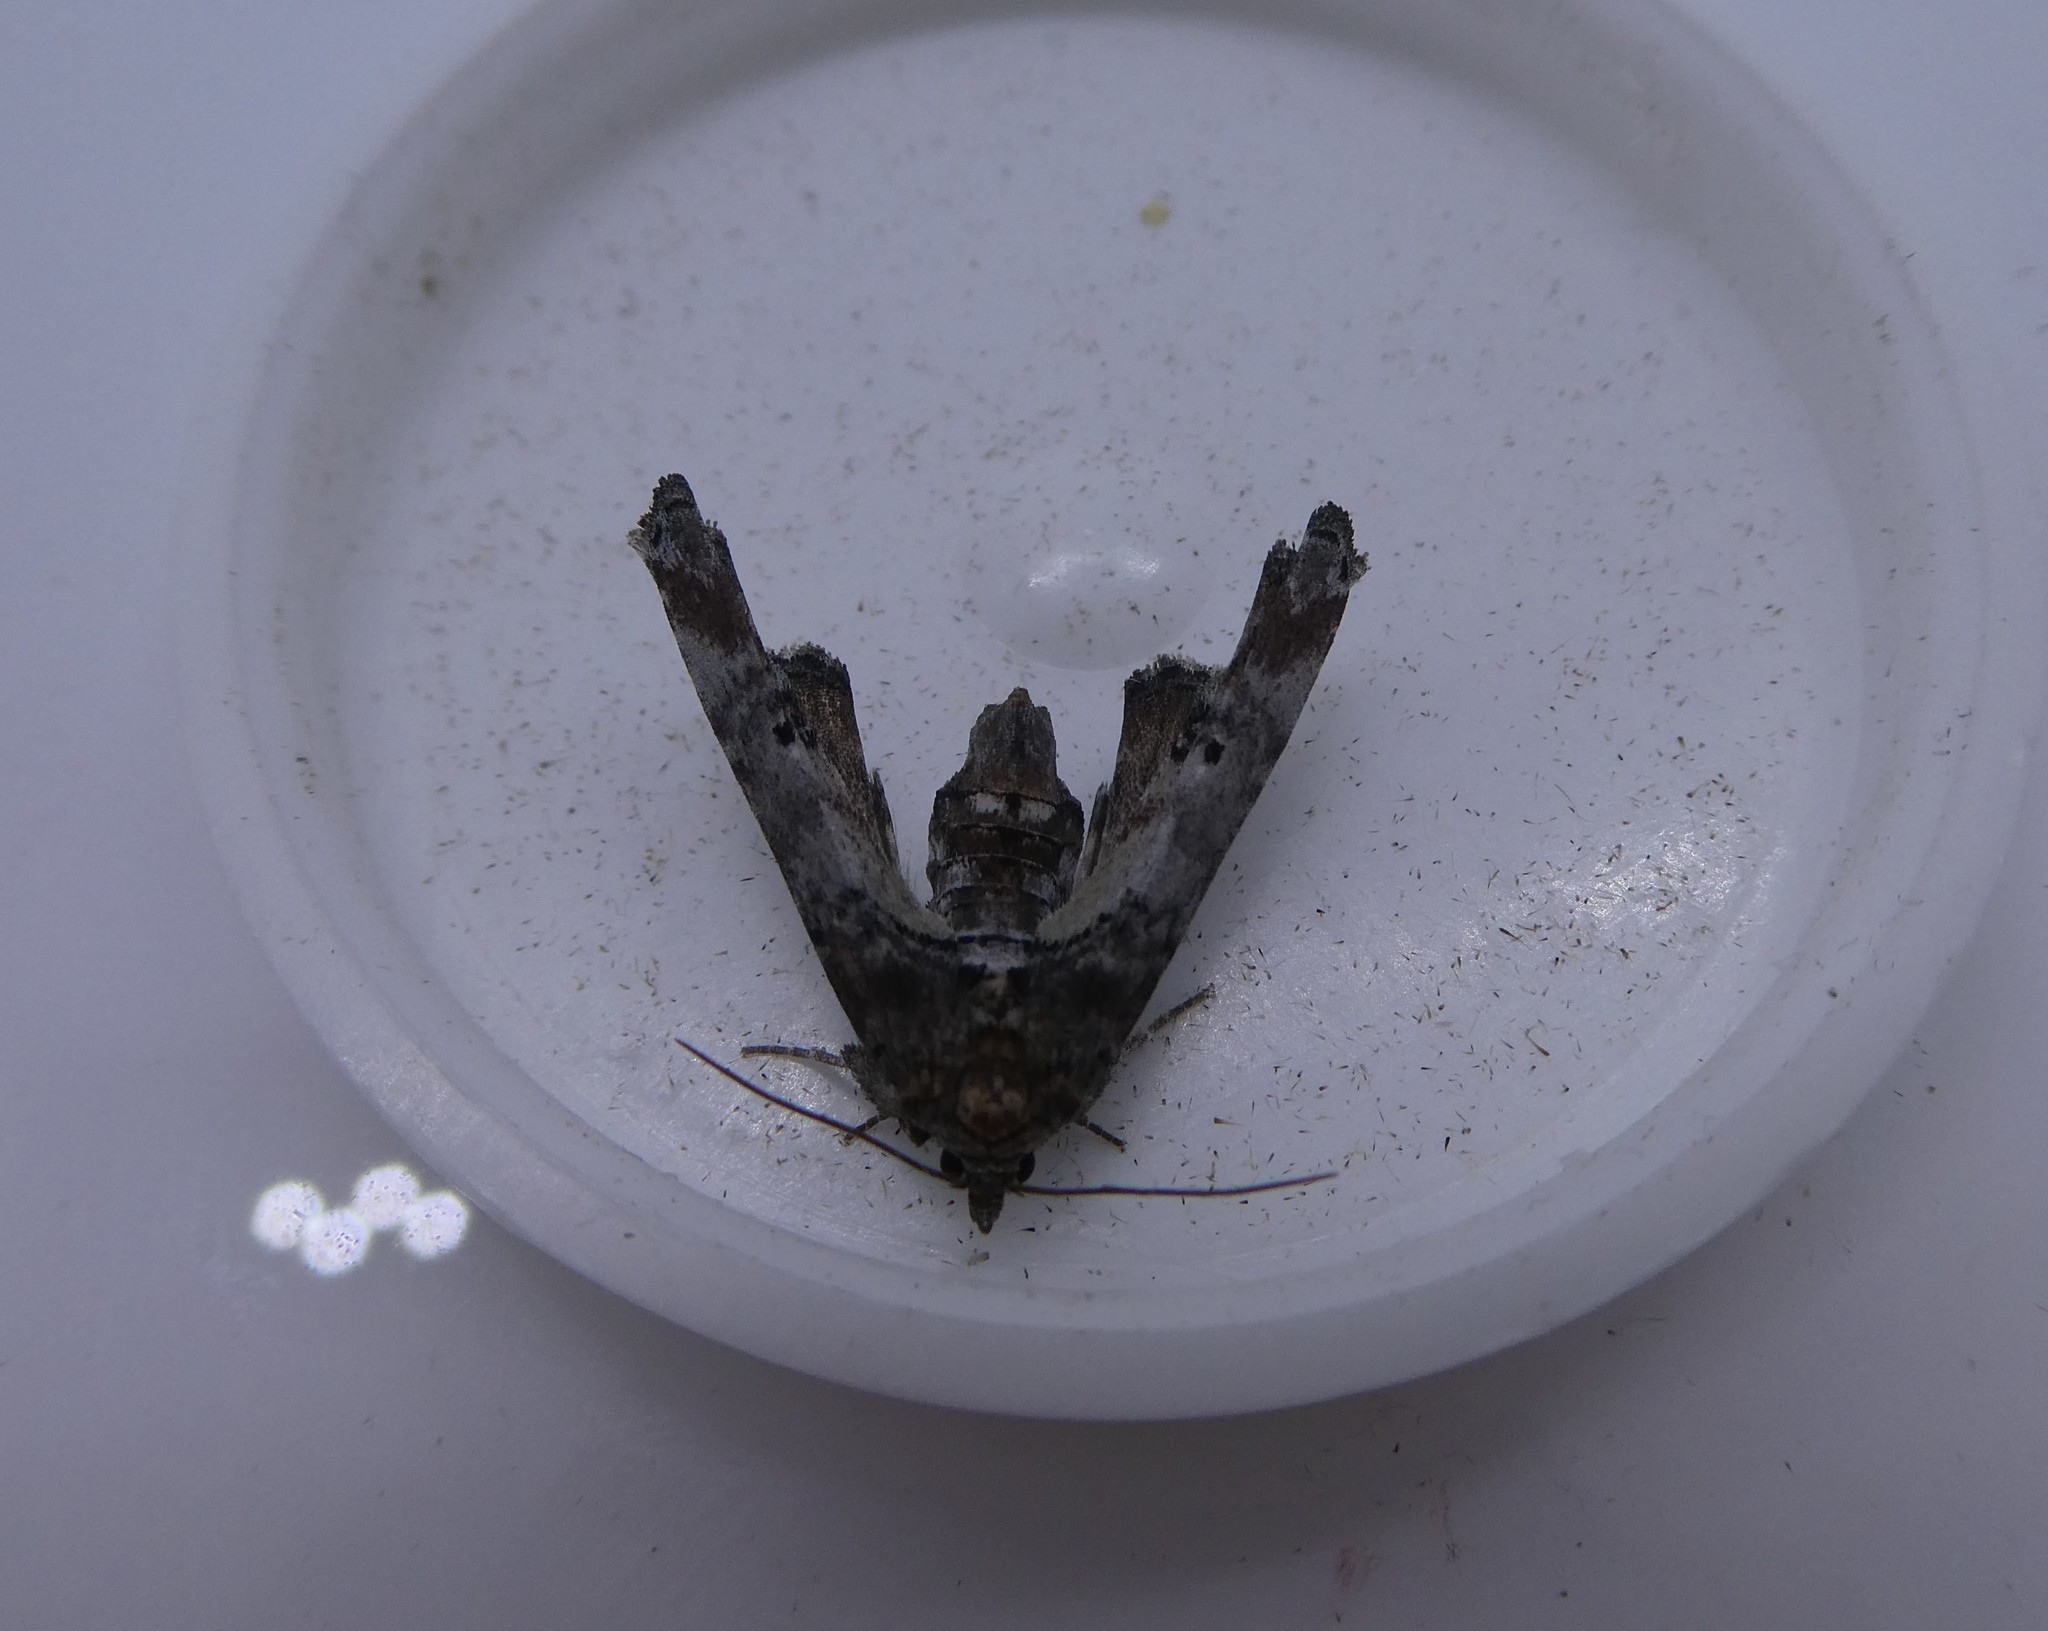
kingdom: Animalia
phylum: Arthropoda
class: Insecta
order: Lepidoptera
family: Euteliidae
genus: Marathyssa
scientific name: Marathyssa inficita
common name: Dark marathyssa moth
